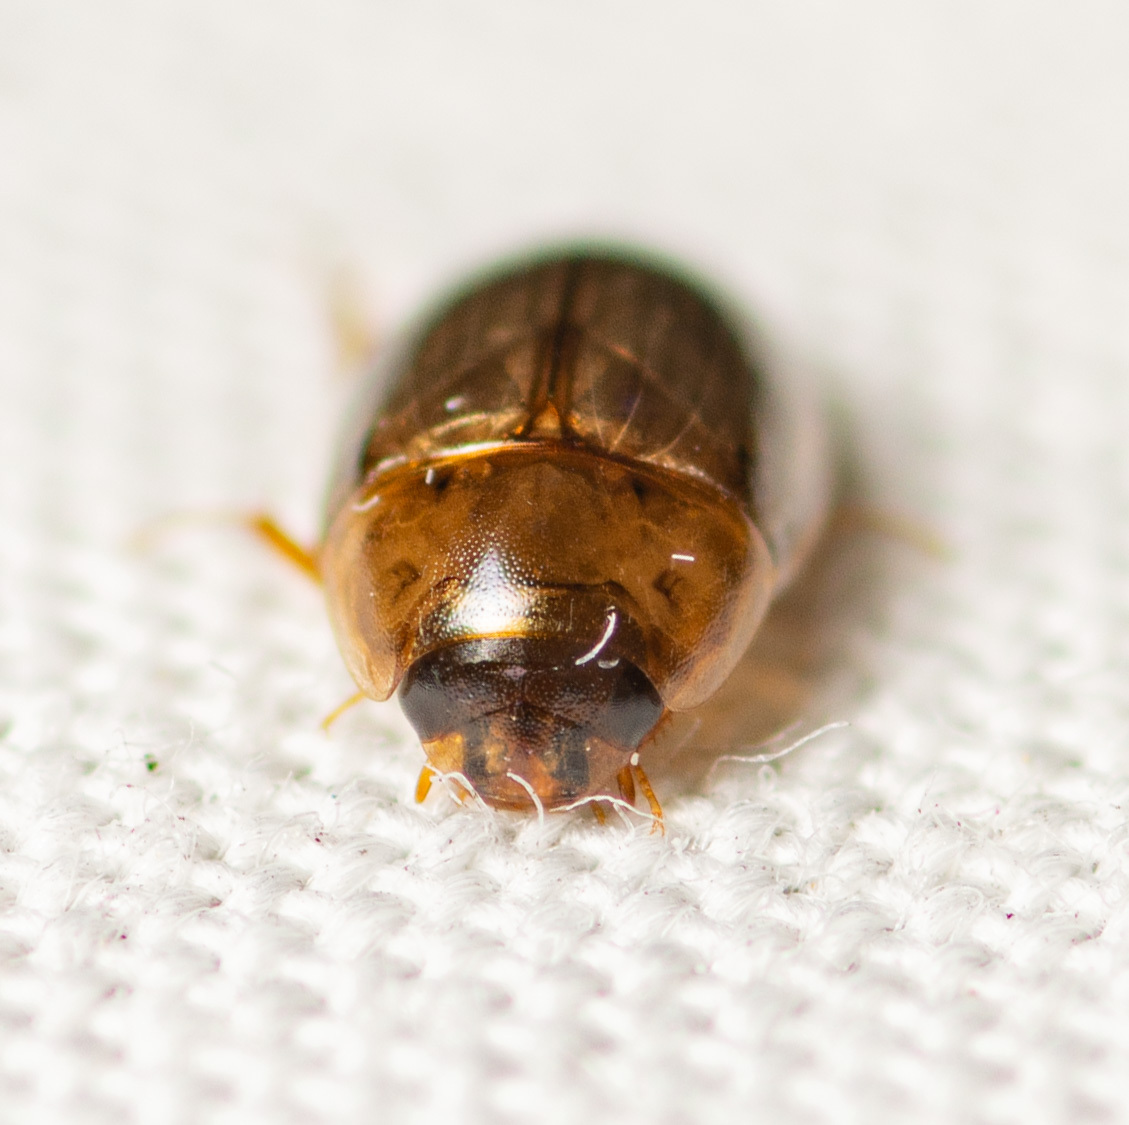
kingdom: Animalia
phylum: Arthropoda
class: Insecta
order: Coleoptera
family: Hydrophilidae
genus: Enochrus
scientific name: Enochrus
